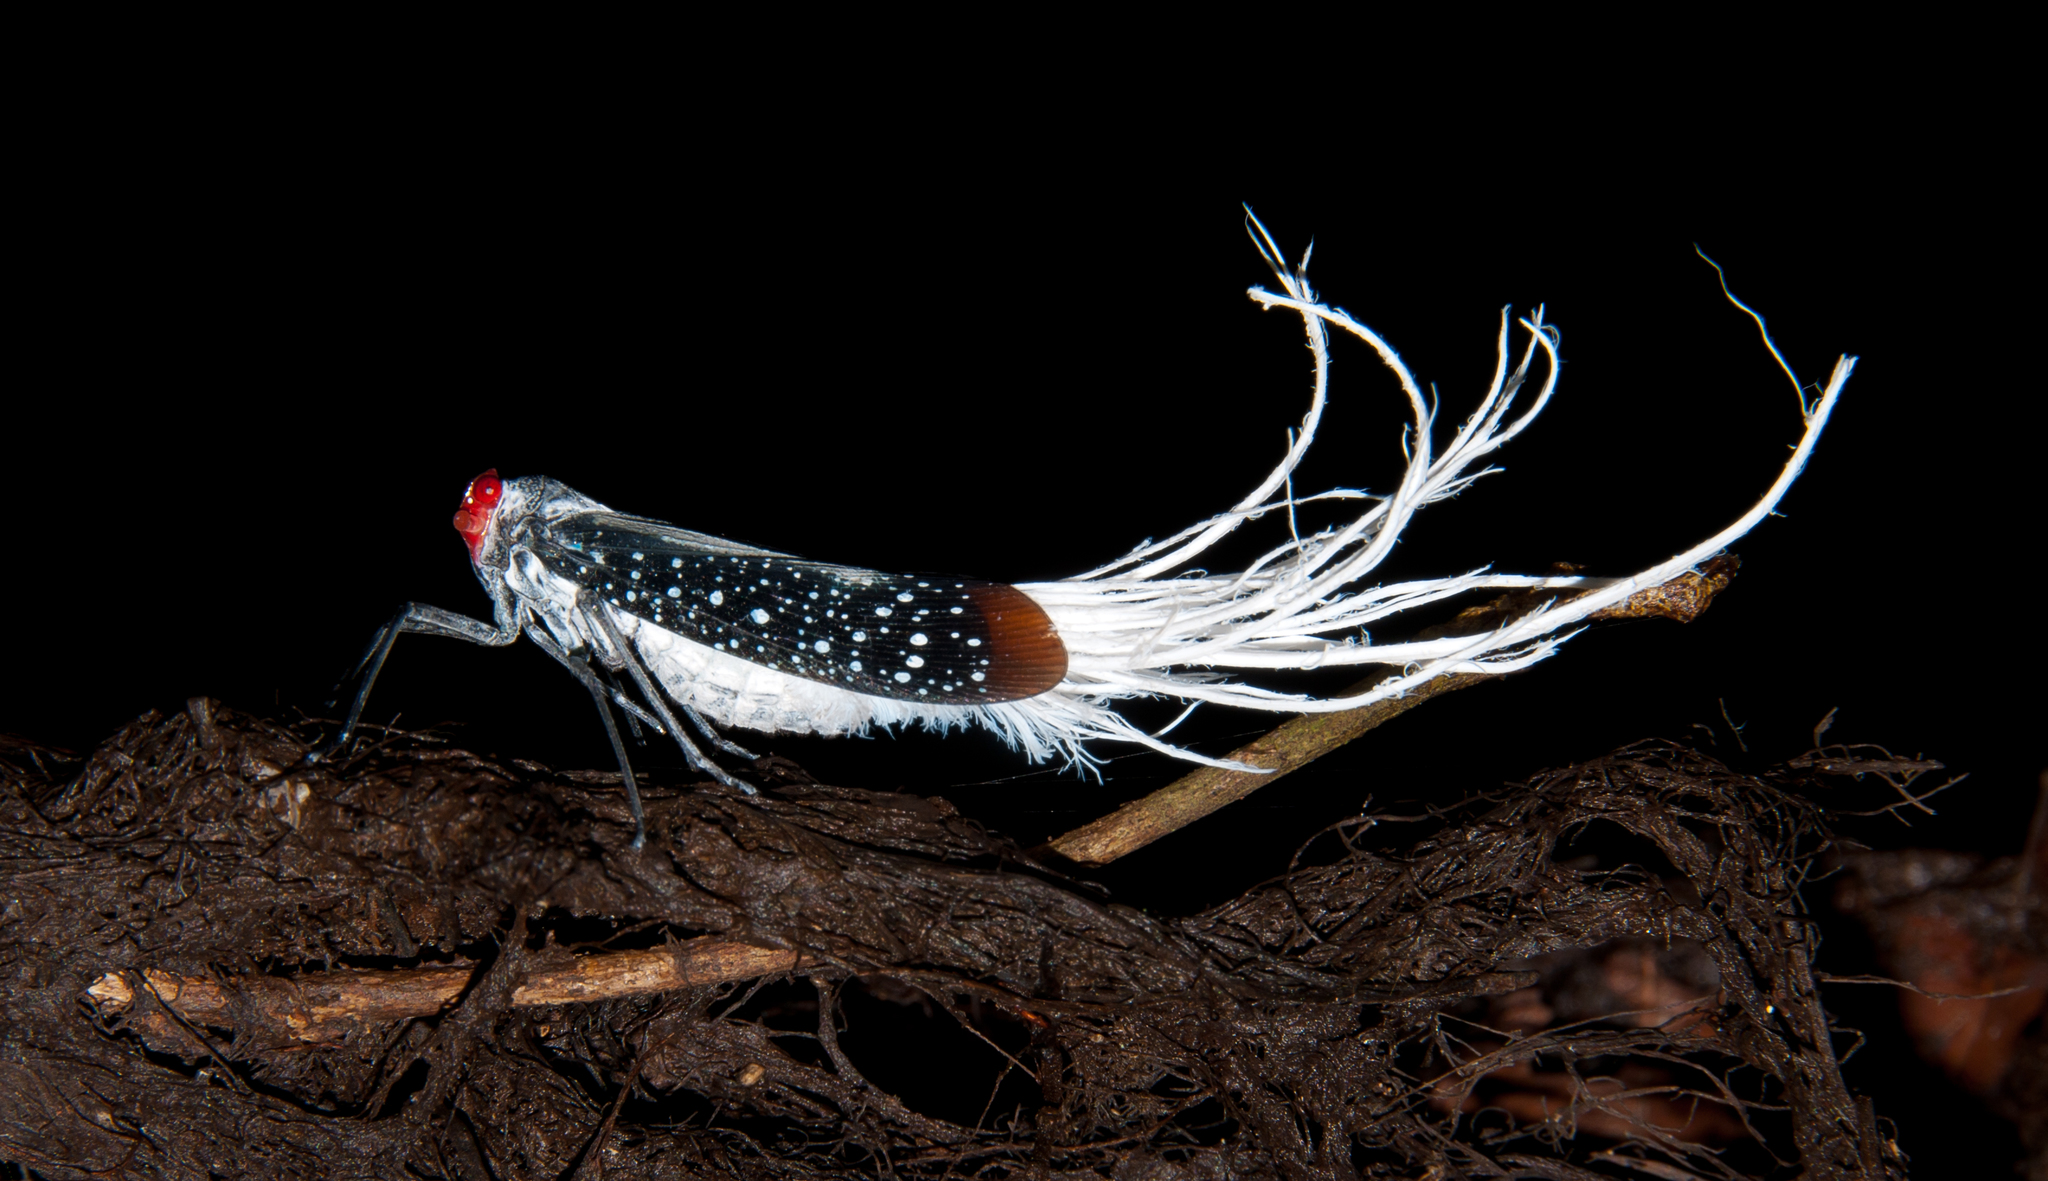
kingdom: Animalia
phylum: Arthropoda
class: Insecta
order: Hemiptera
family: Fulgoridae
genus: Lystra
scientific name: Lystra lanata
